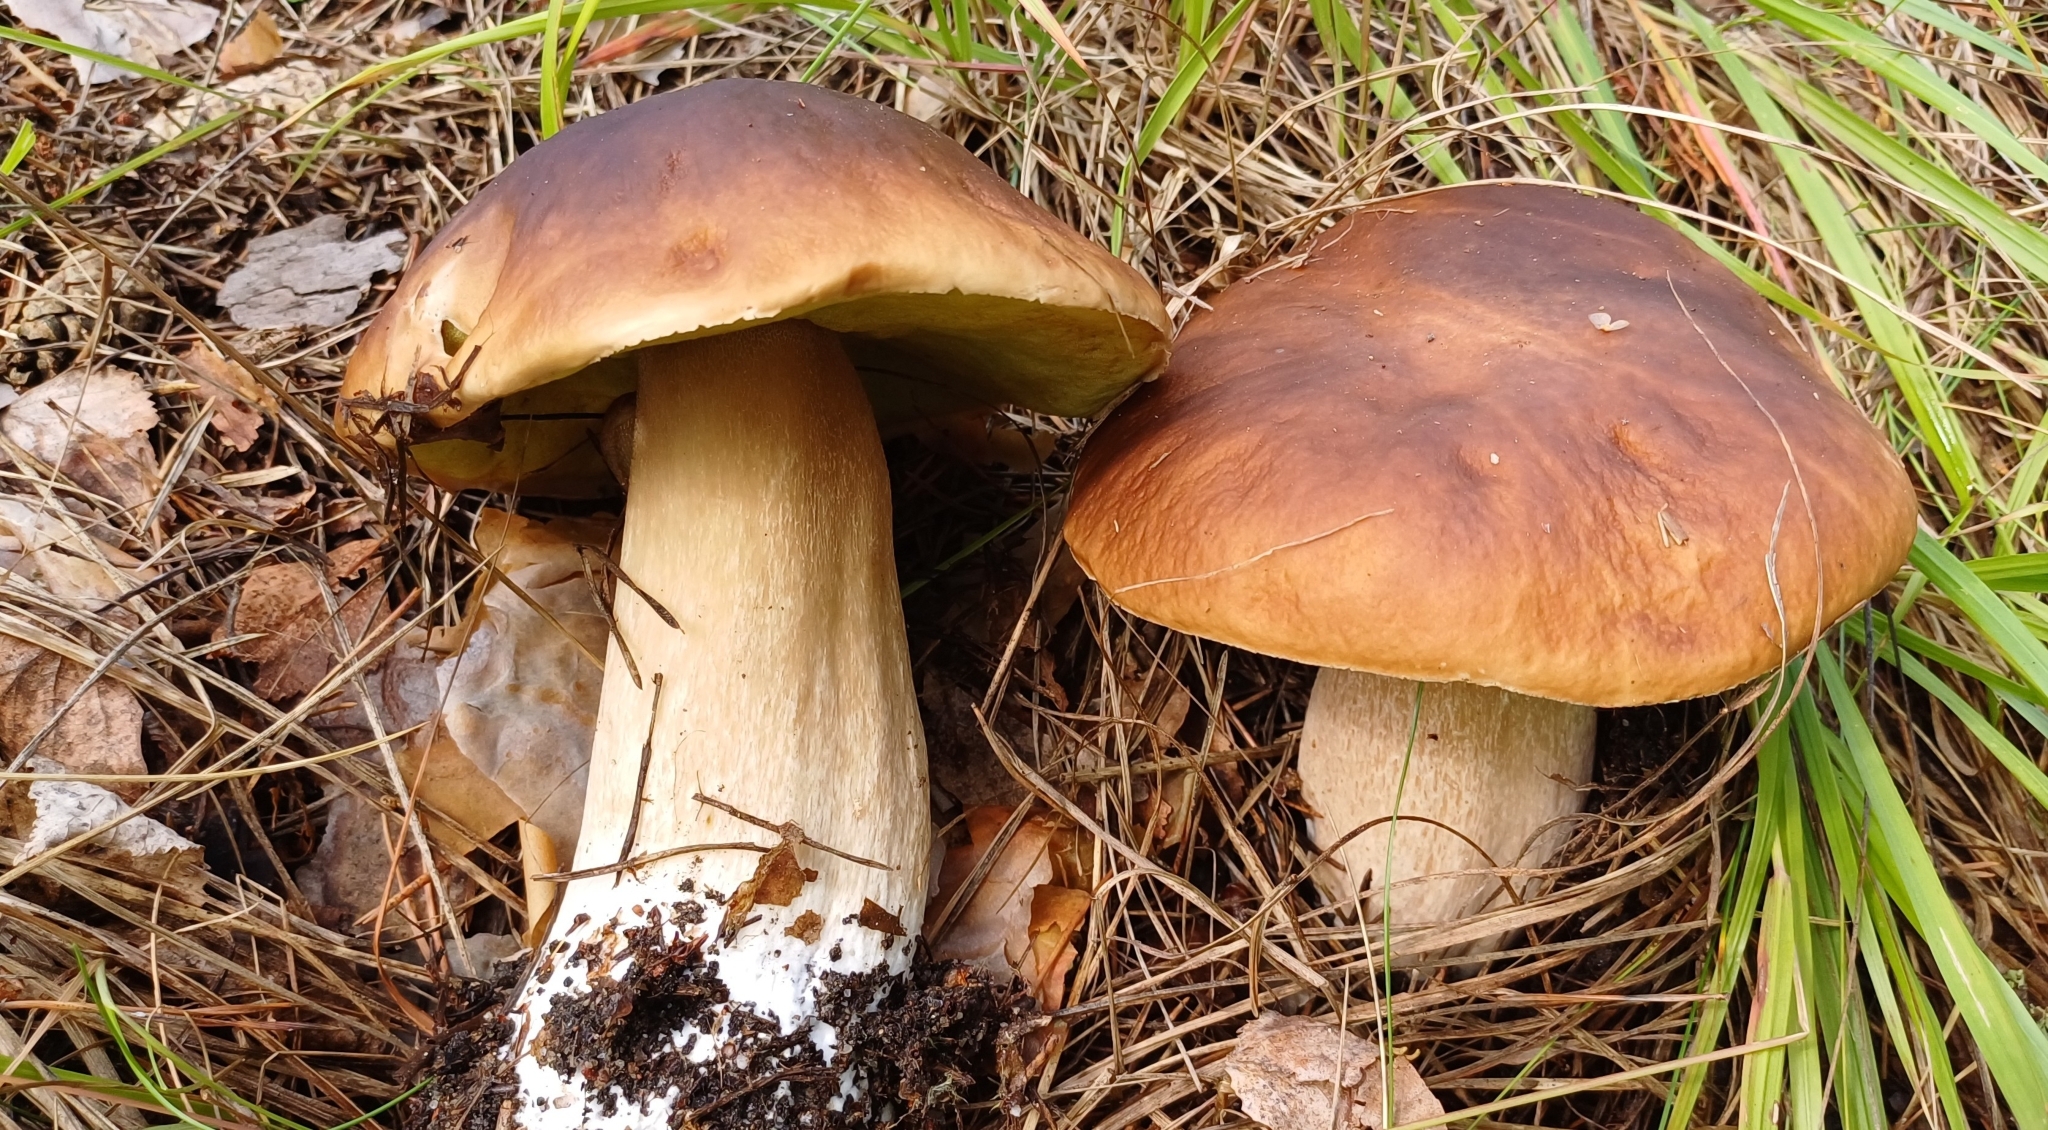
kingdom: Fungi
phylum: Basidiomycota
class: Agaricomycetes
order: Boletales
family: Boletaceae
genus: Boletus
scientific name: Boletus edulis
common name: Cep
